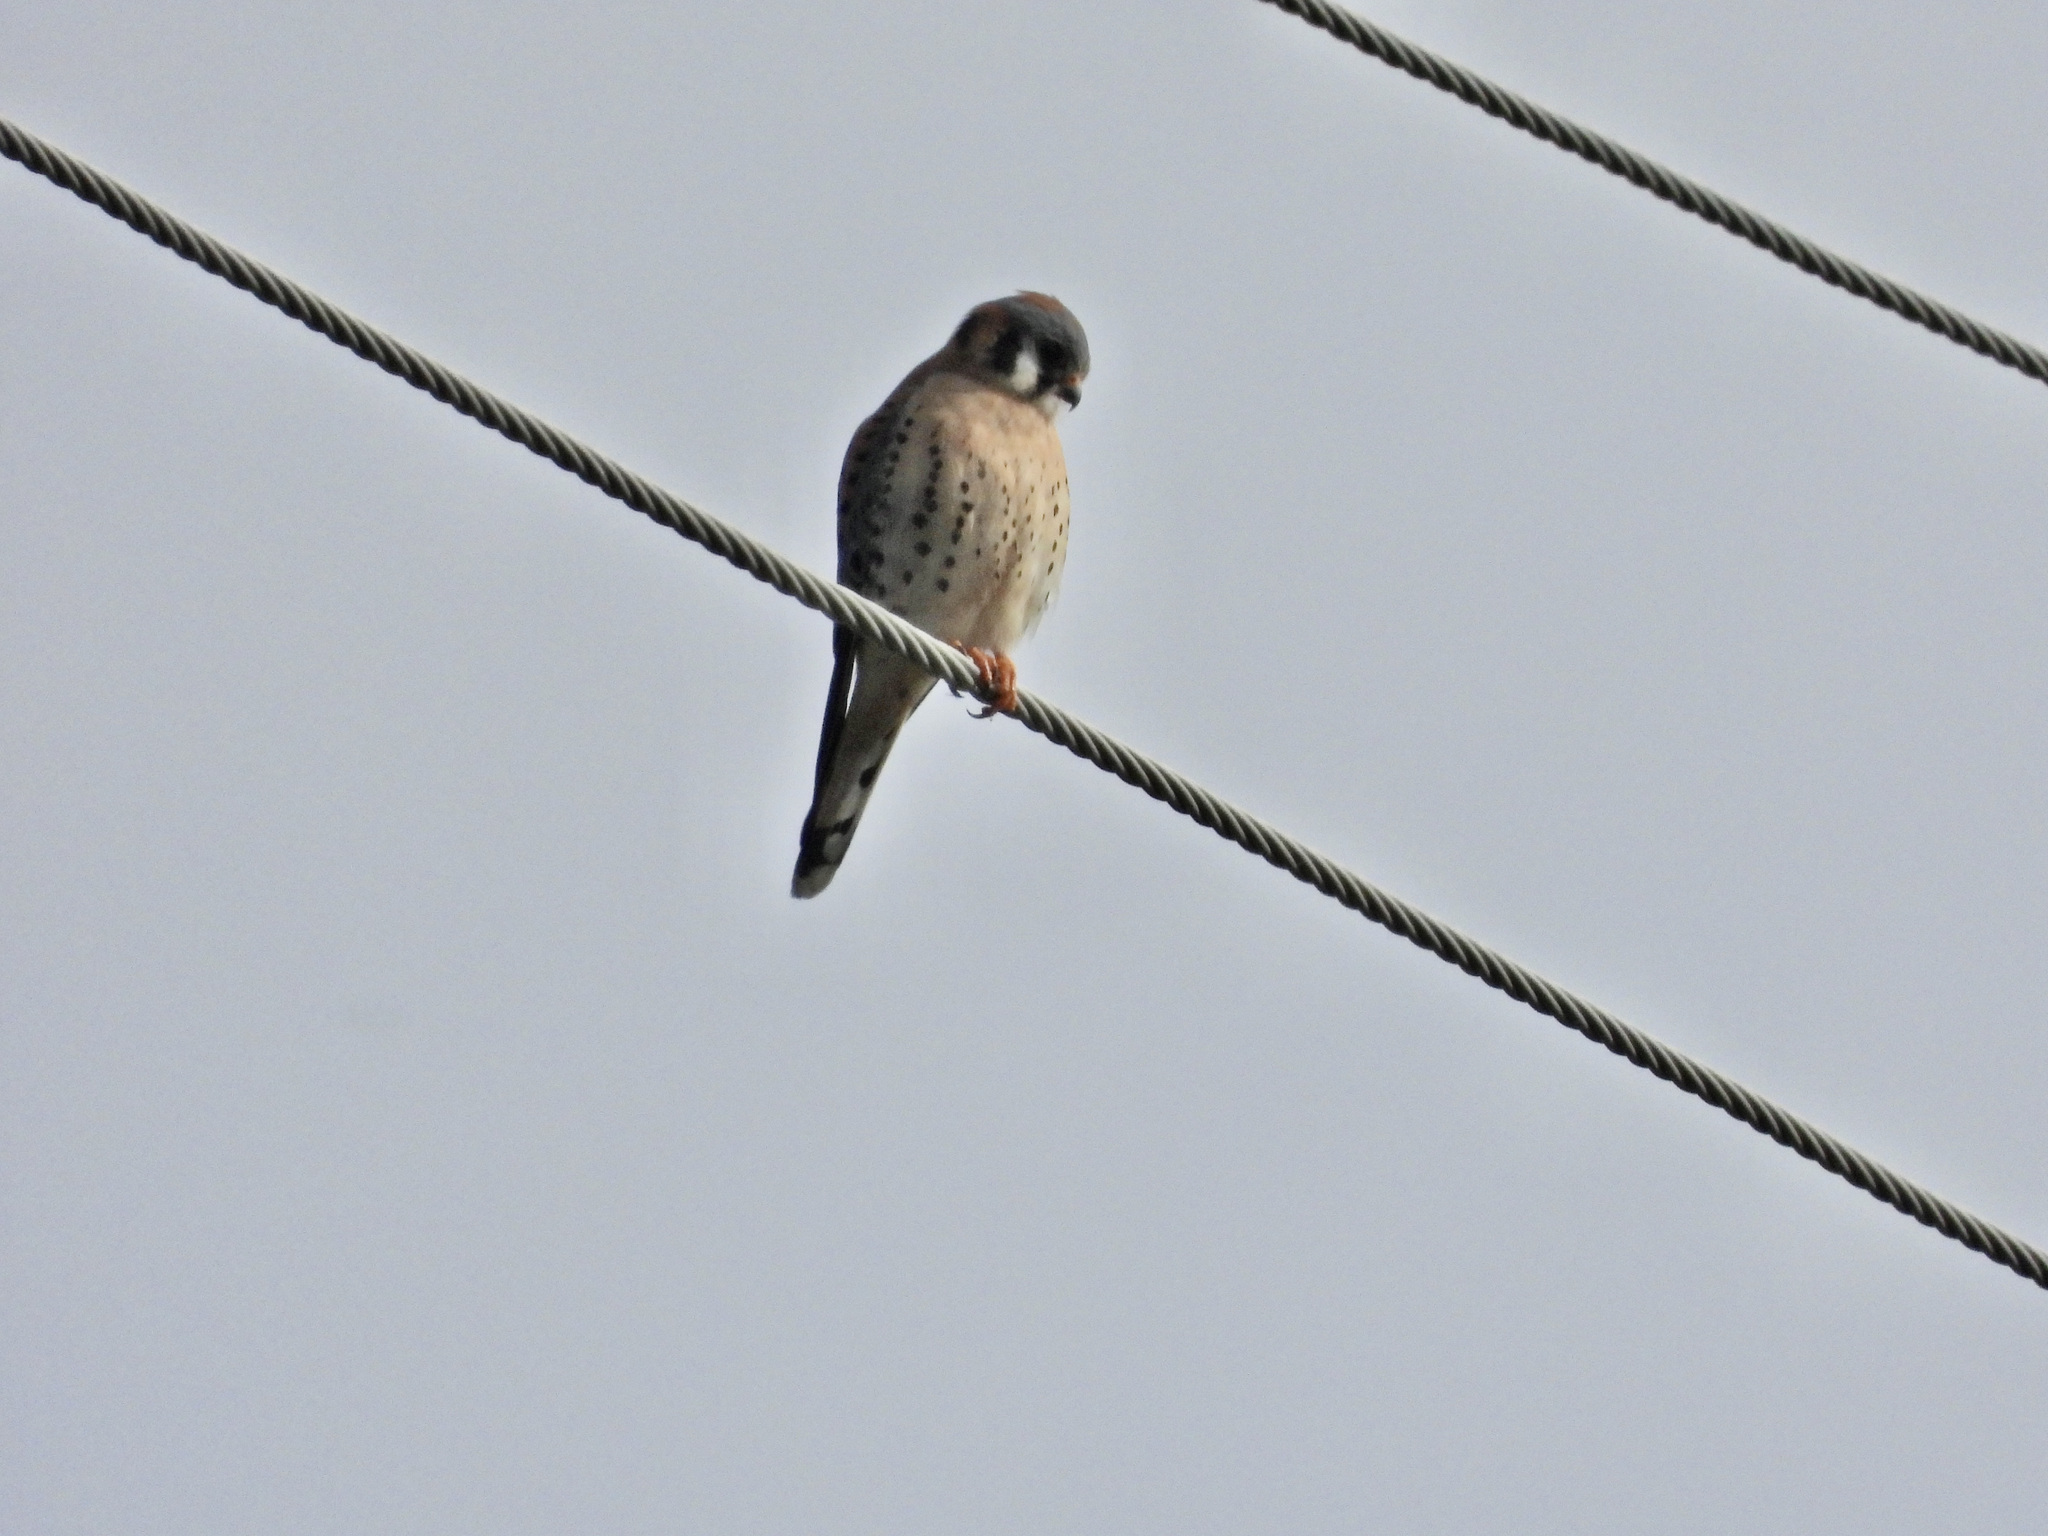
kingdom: Animalia
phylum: Chordata
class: Aves
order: Falconiformes
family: Falconidae
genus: Falco
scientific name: Falco sparverius
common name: American kestrel
